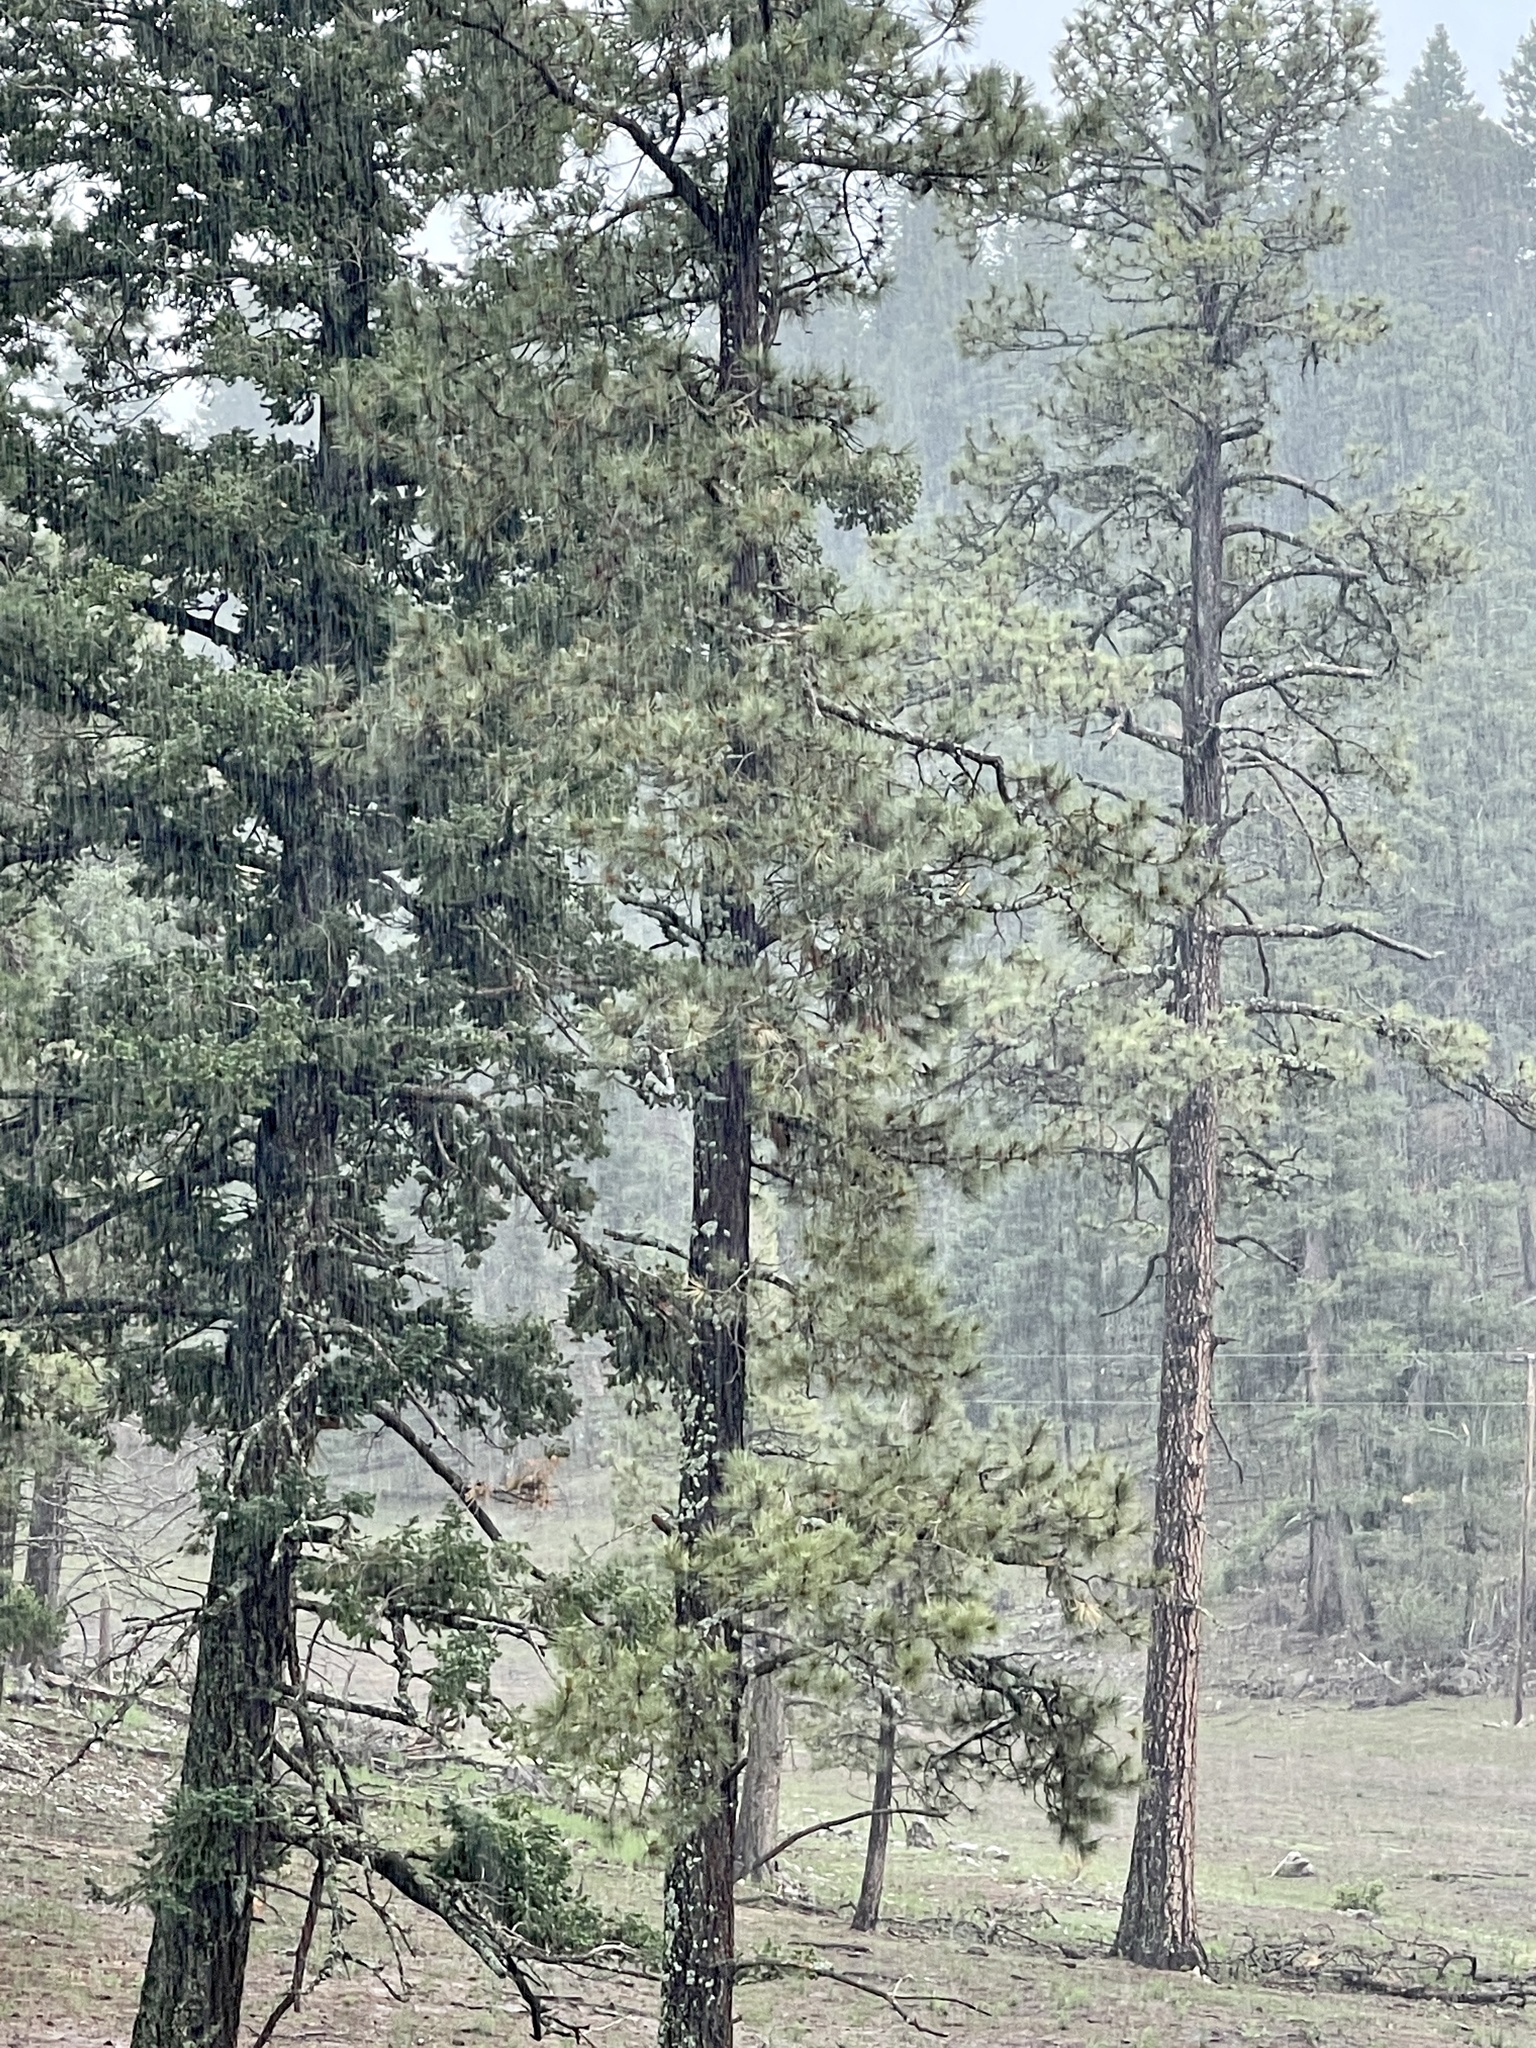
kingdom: Plantae
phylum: Tracheophyta
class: Pinopsida
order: Pinales
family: Pinaceae
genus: Pinus
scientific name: Pinus ponderosa
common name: Western yellow-pine
